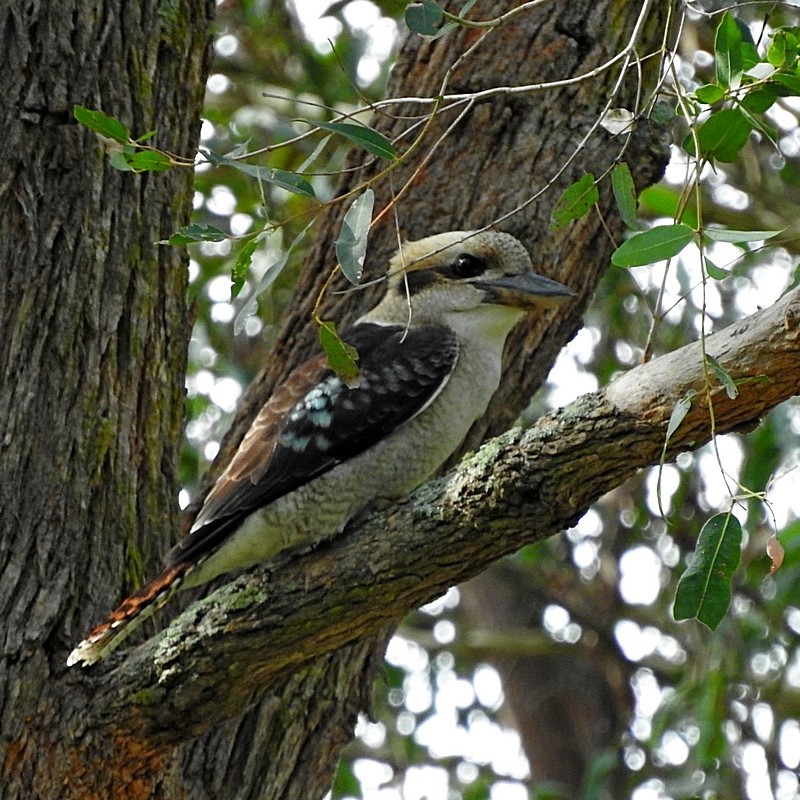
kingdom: Animalia
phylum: Chordata
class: Aves
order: Coraciiformes
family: Alcedinidae
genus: Dacelo
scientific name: Dacelo novaeguineae
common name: Laughing kookaburra
